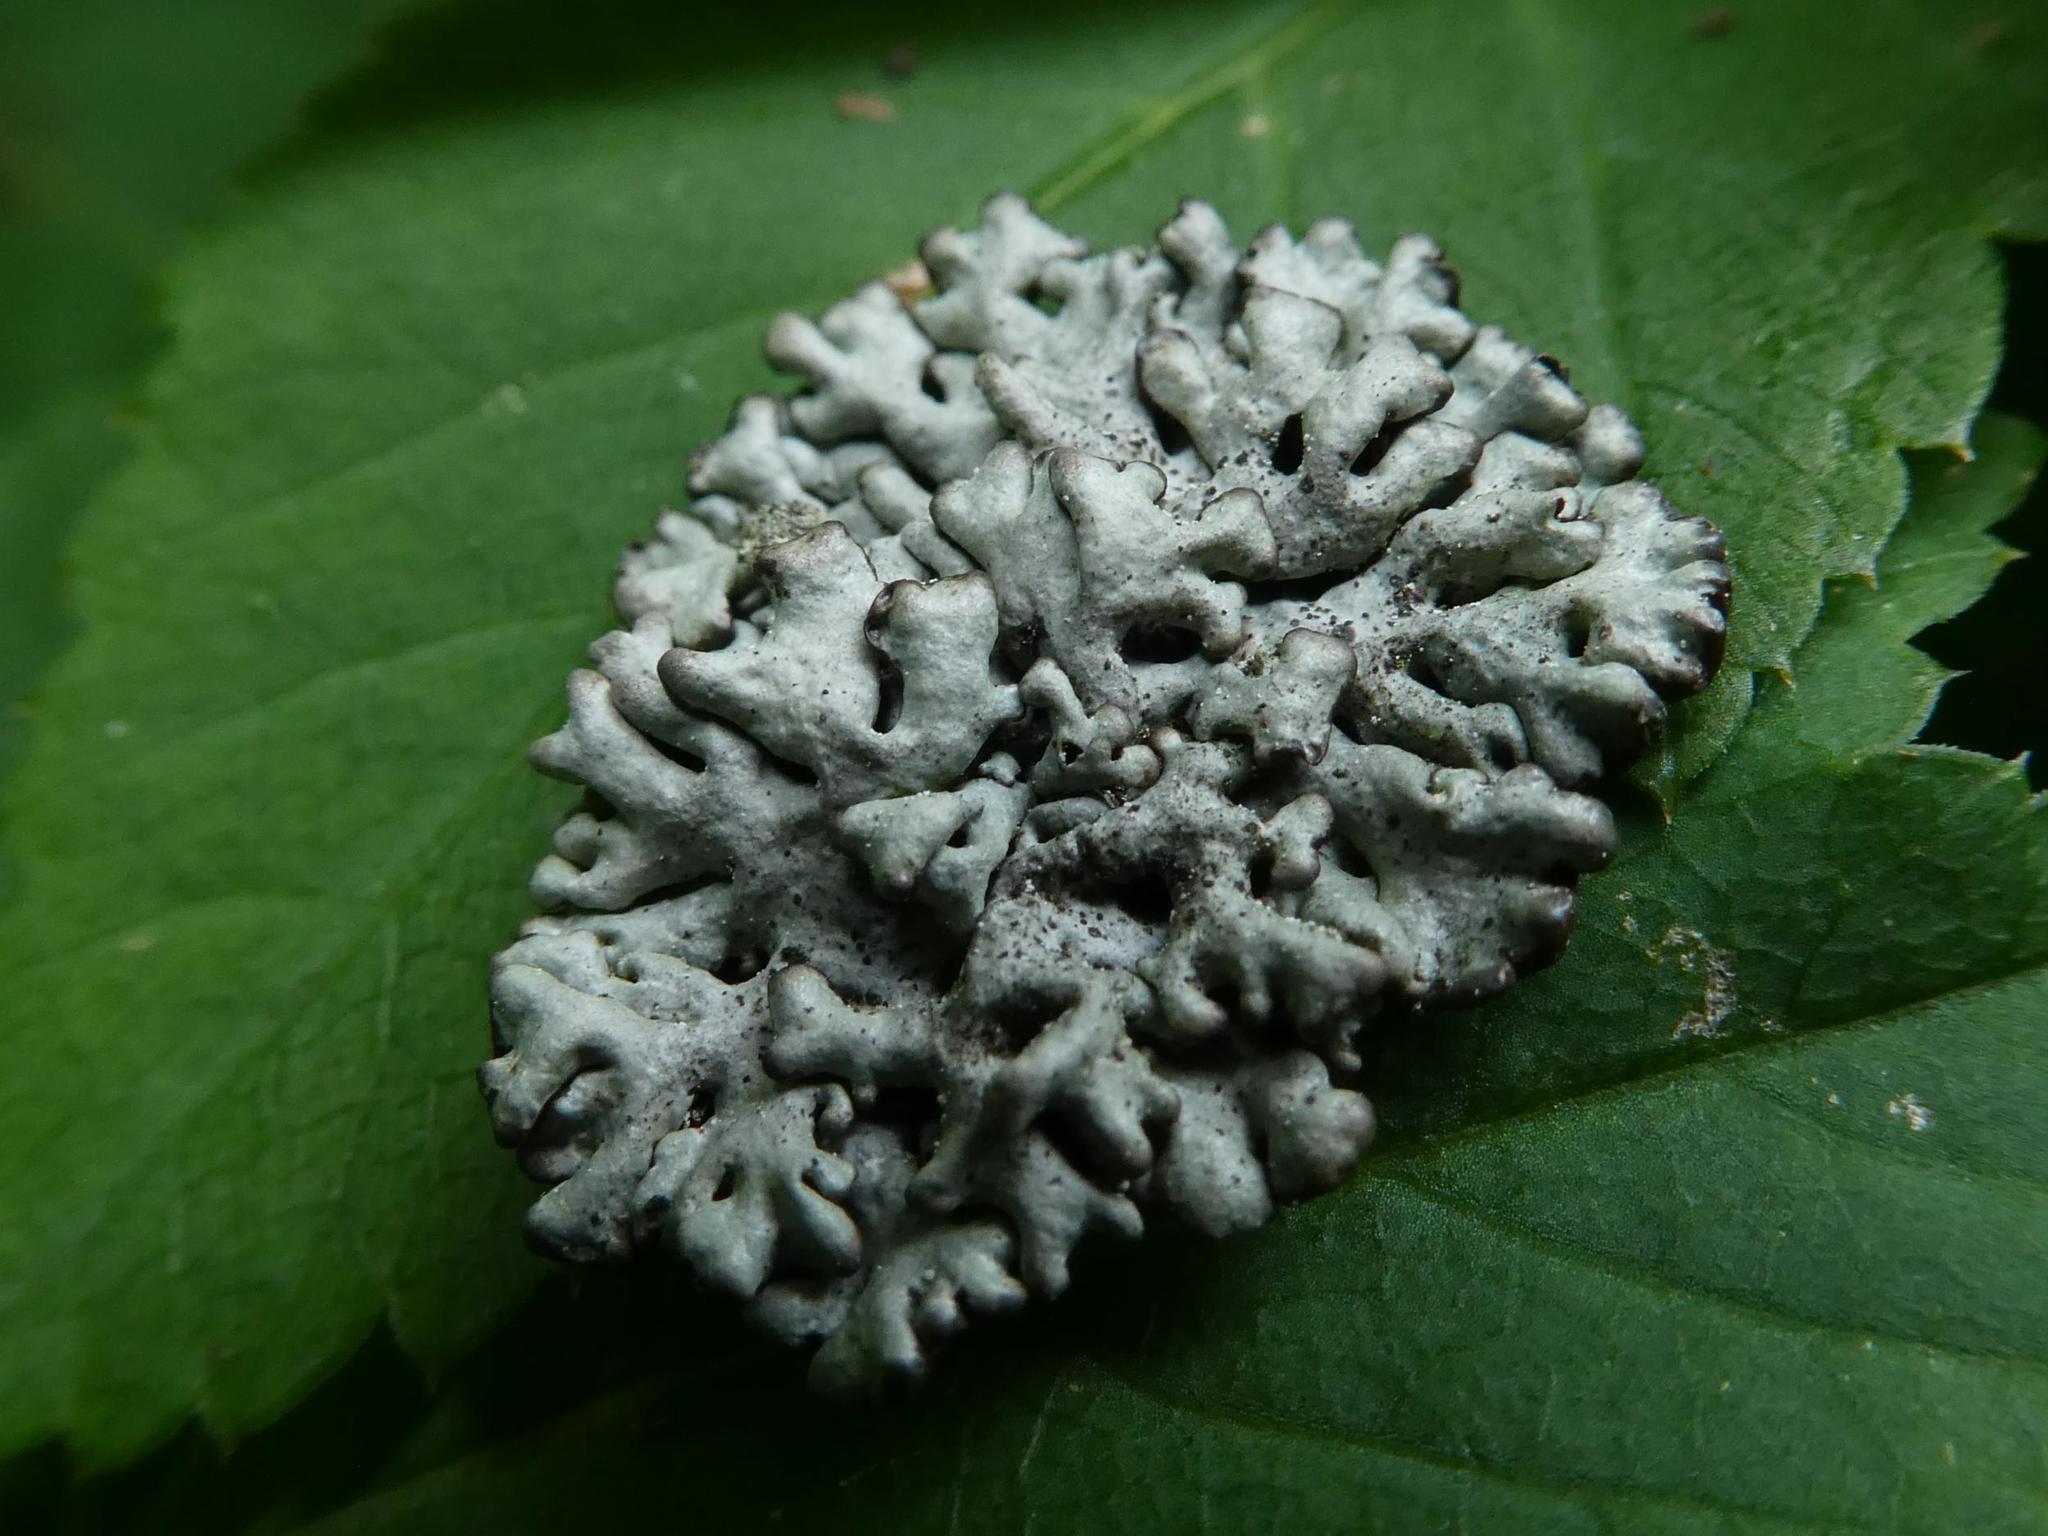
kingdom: Fungi
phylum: Ascomycota
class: Lecanoromycetes
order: Lecanorales
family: Parmeliaceae
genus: Hypogymnia
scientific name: Hypogymnia tubulosa
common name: Powder-headed tube lichen
